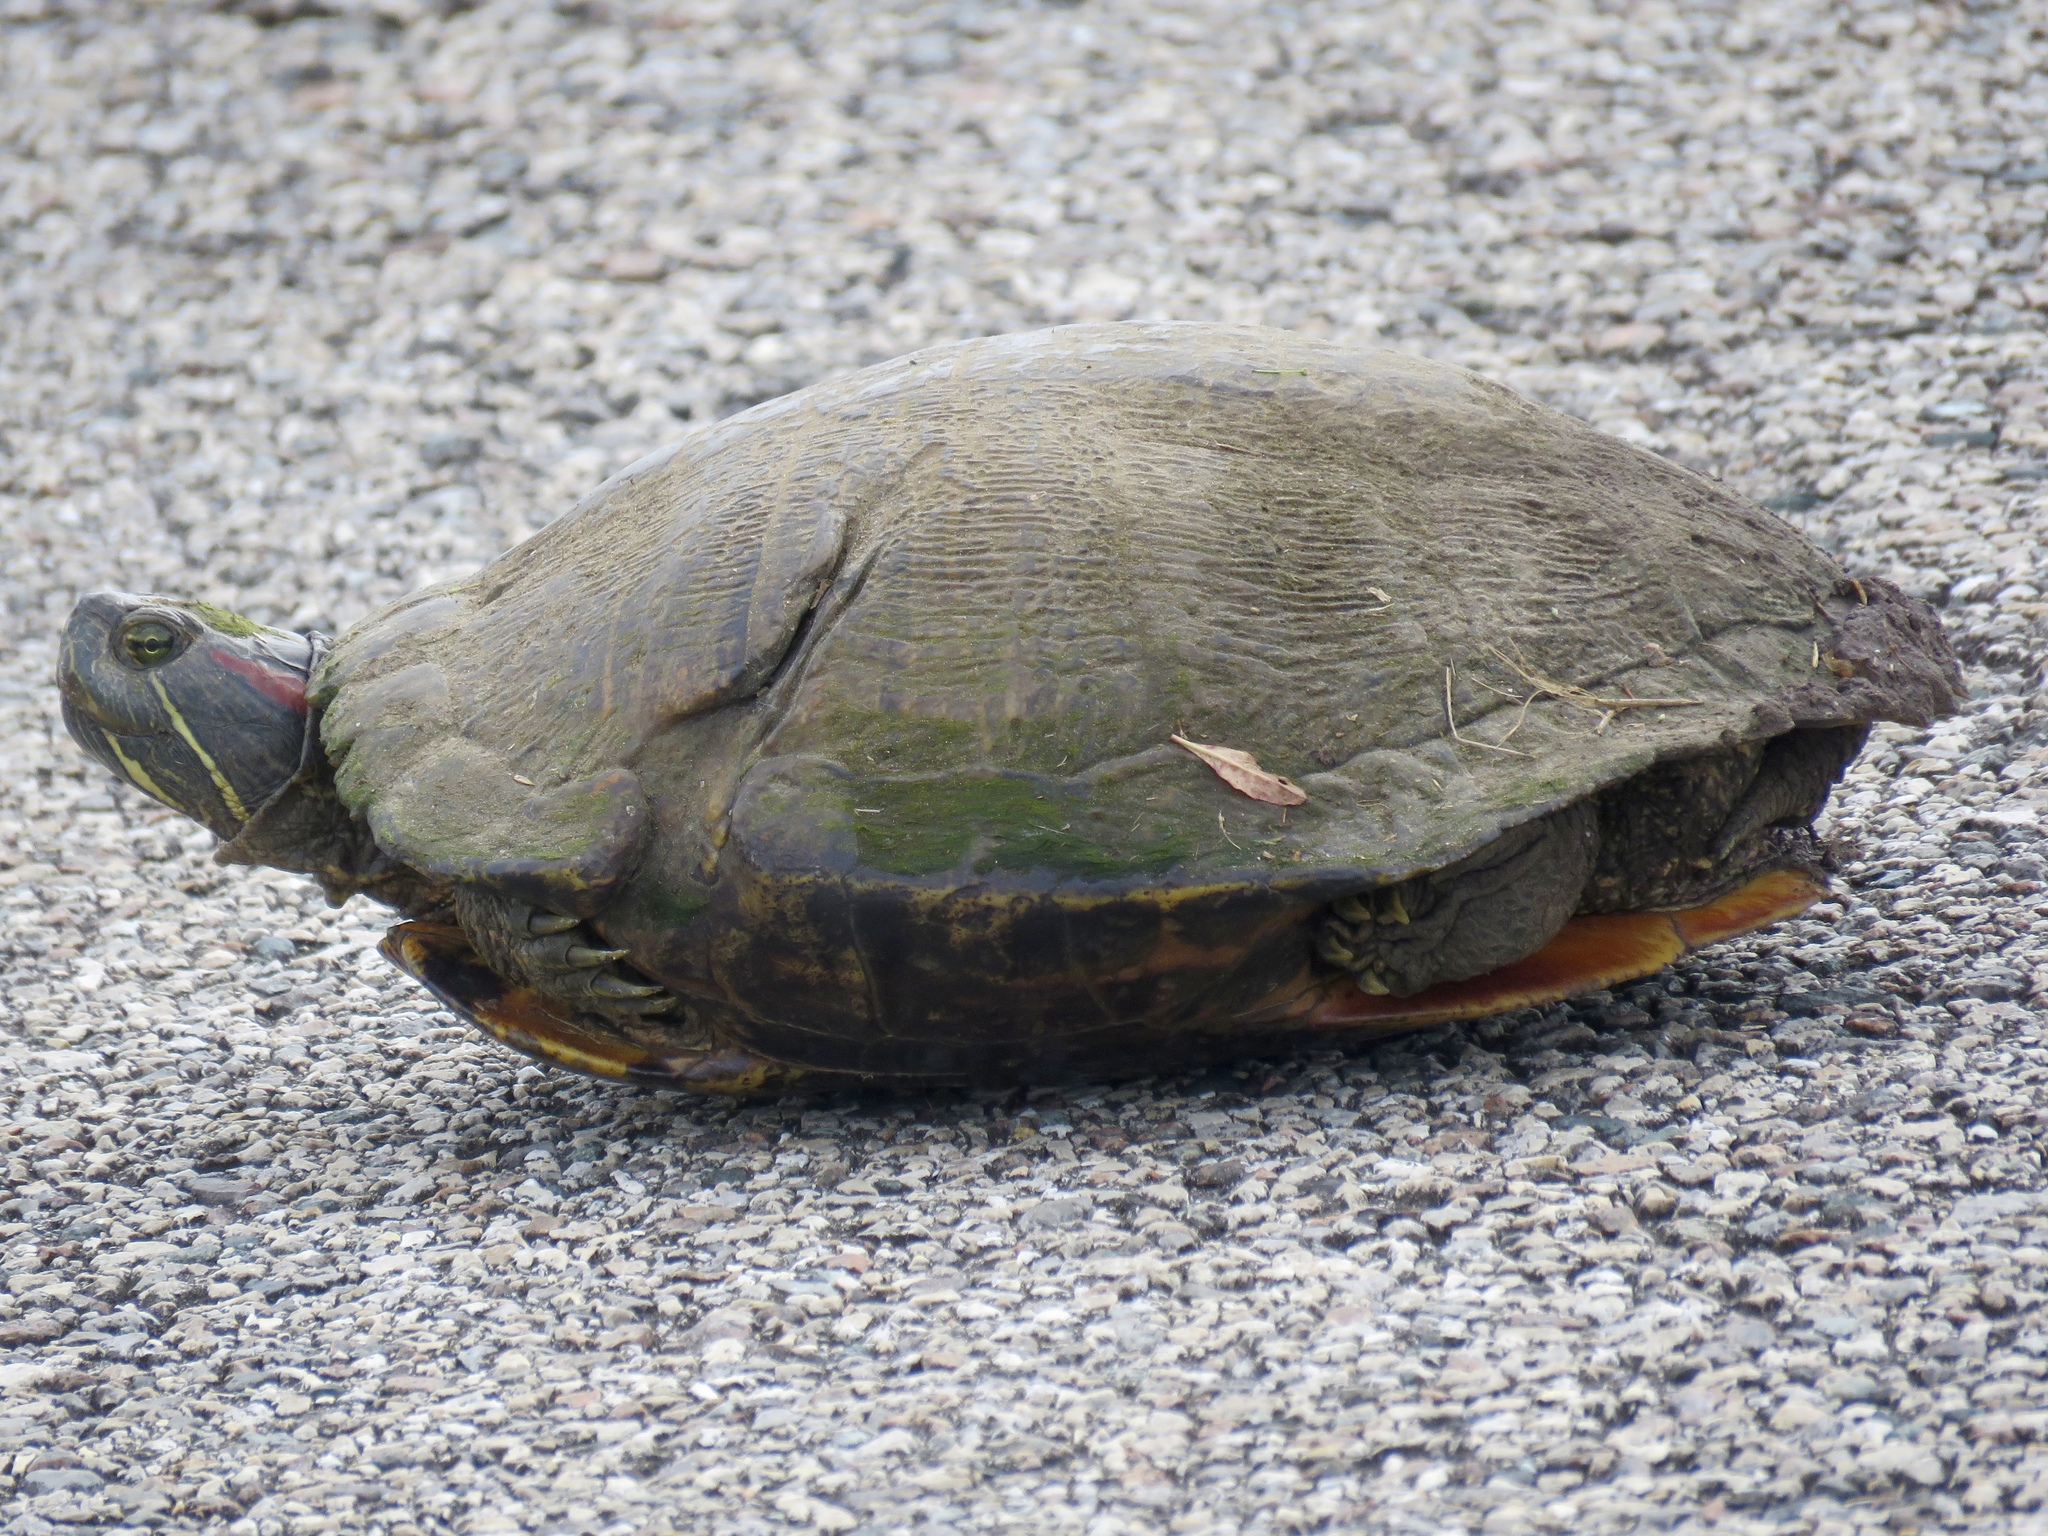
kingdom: Animalia
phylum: Chordata
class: Testudines
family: Emydidae
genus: Trachemys
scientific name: Trachemys scripta
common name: Slider
